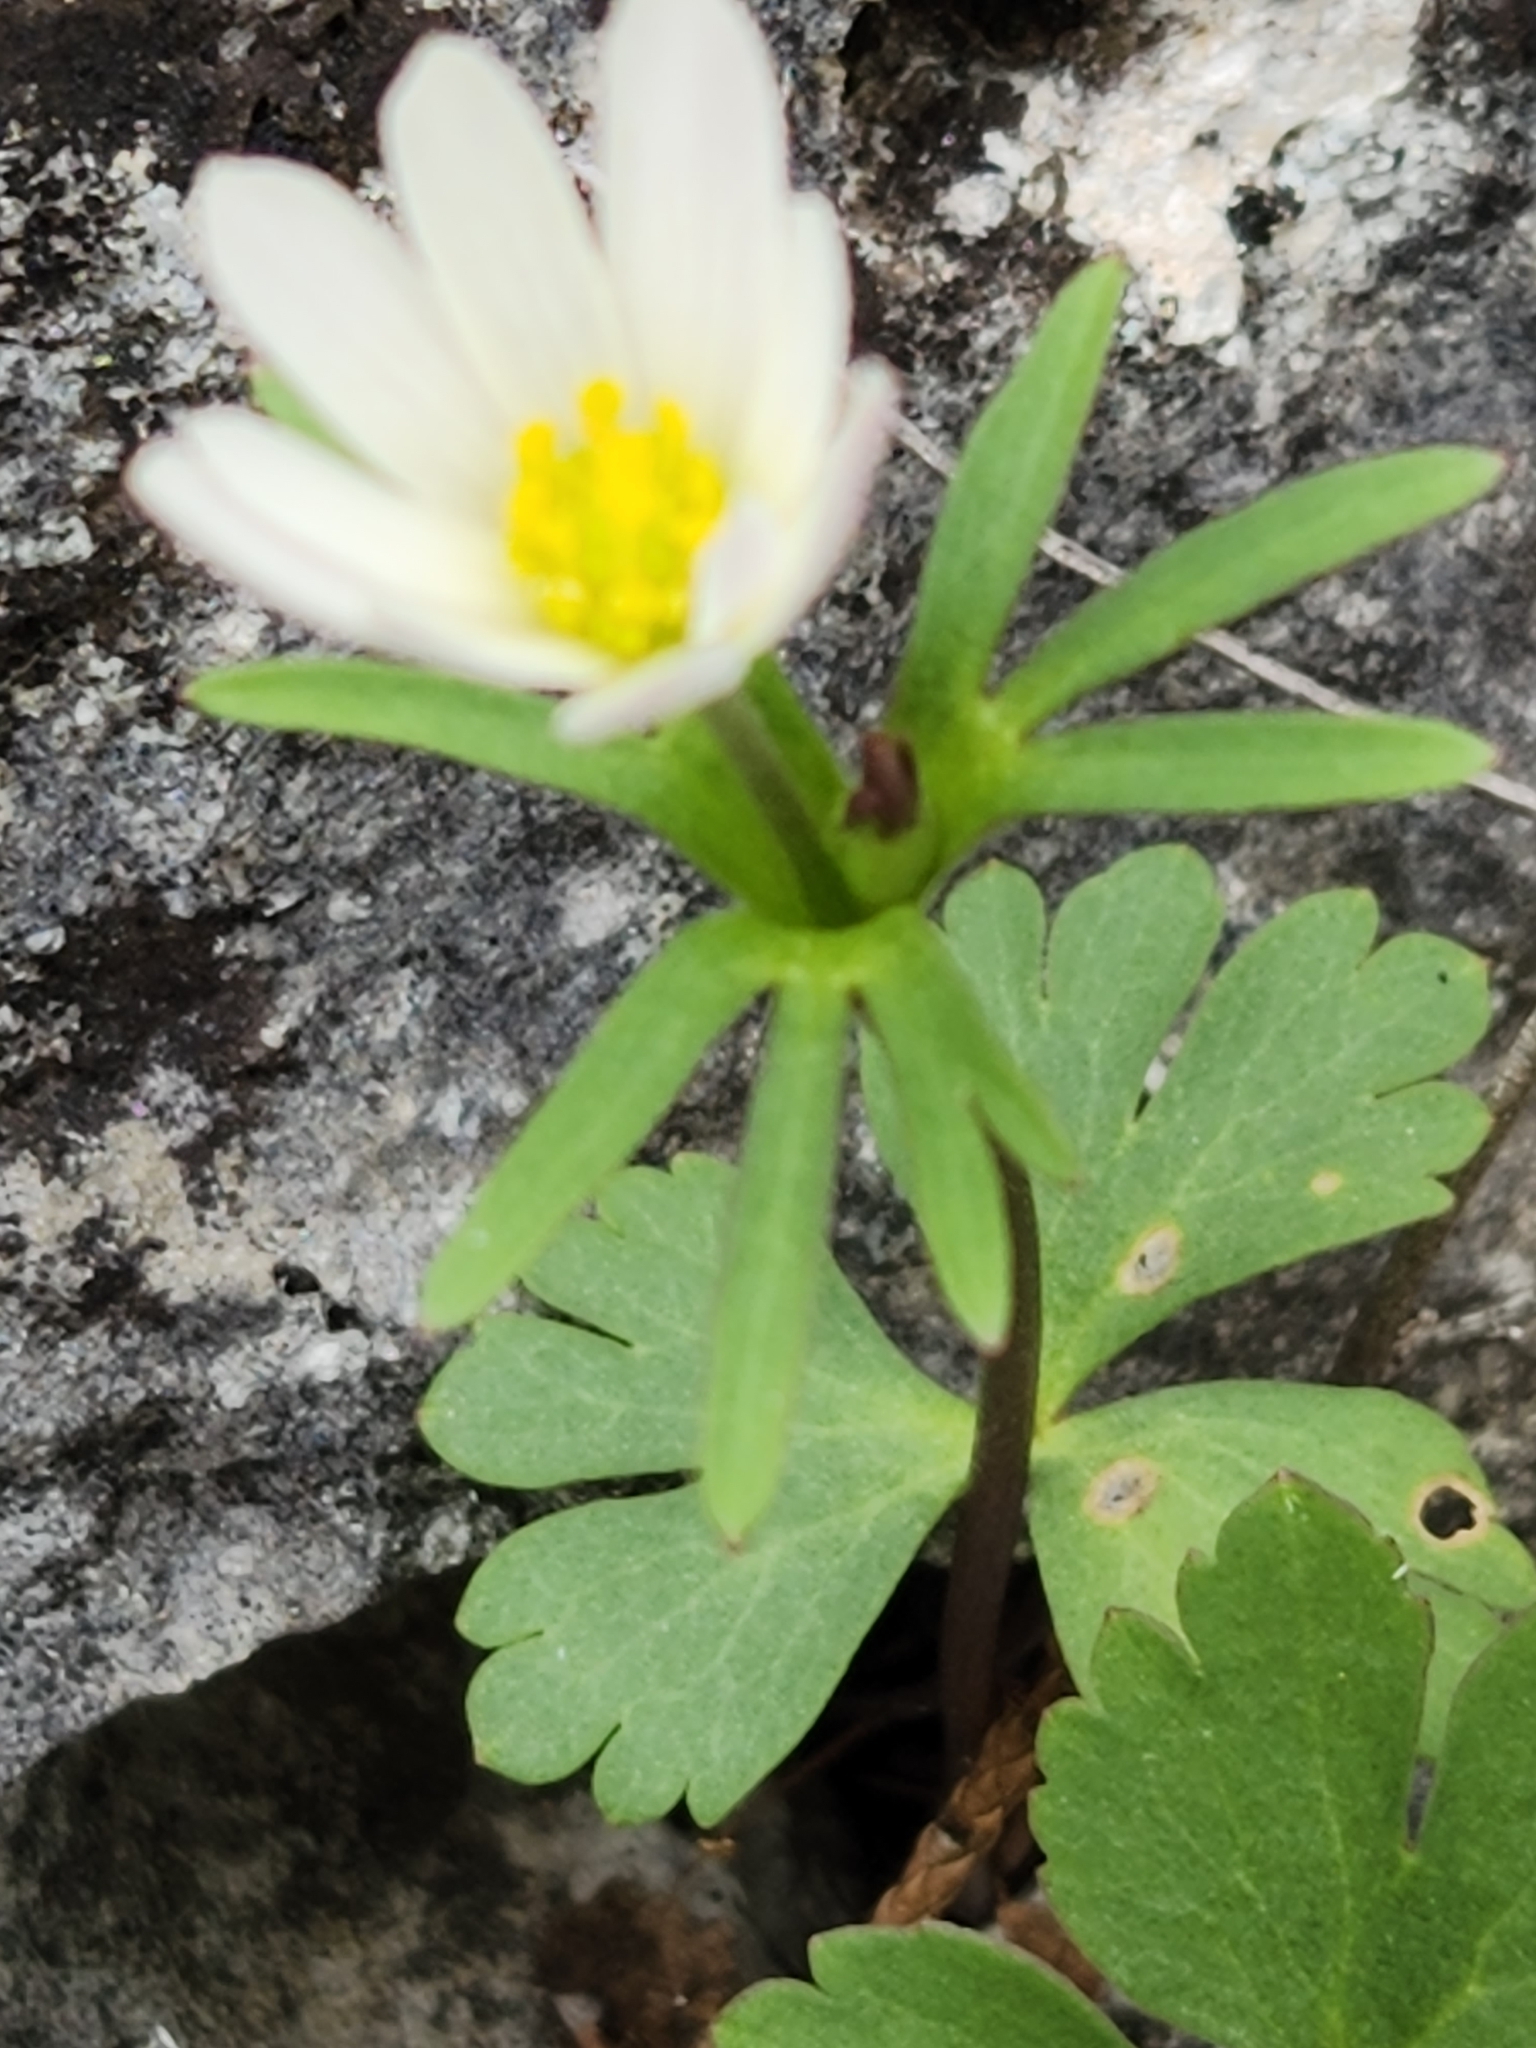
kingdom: Plantae
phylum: Tracheophyta
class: Magnoliopsida
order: Ranunculales
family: Ranunculaceae
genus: Anemone
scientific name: Anemone edwardsiana
